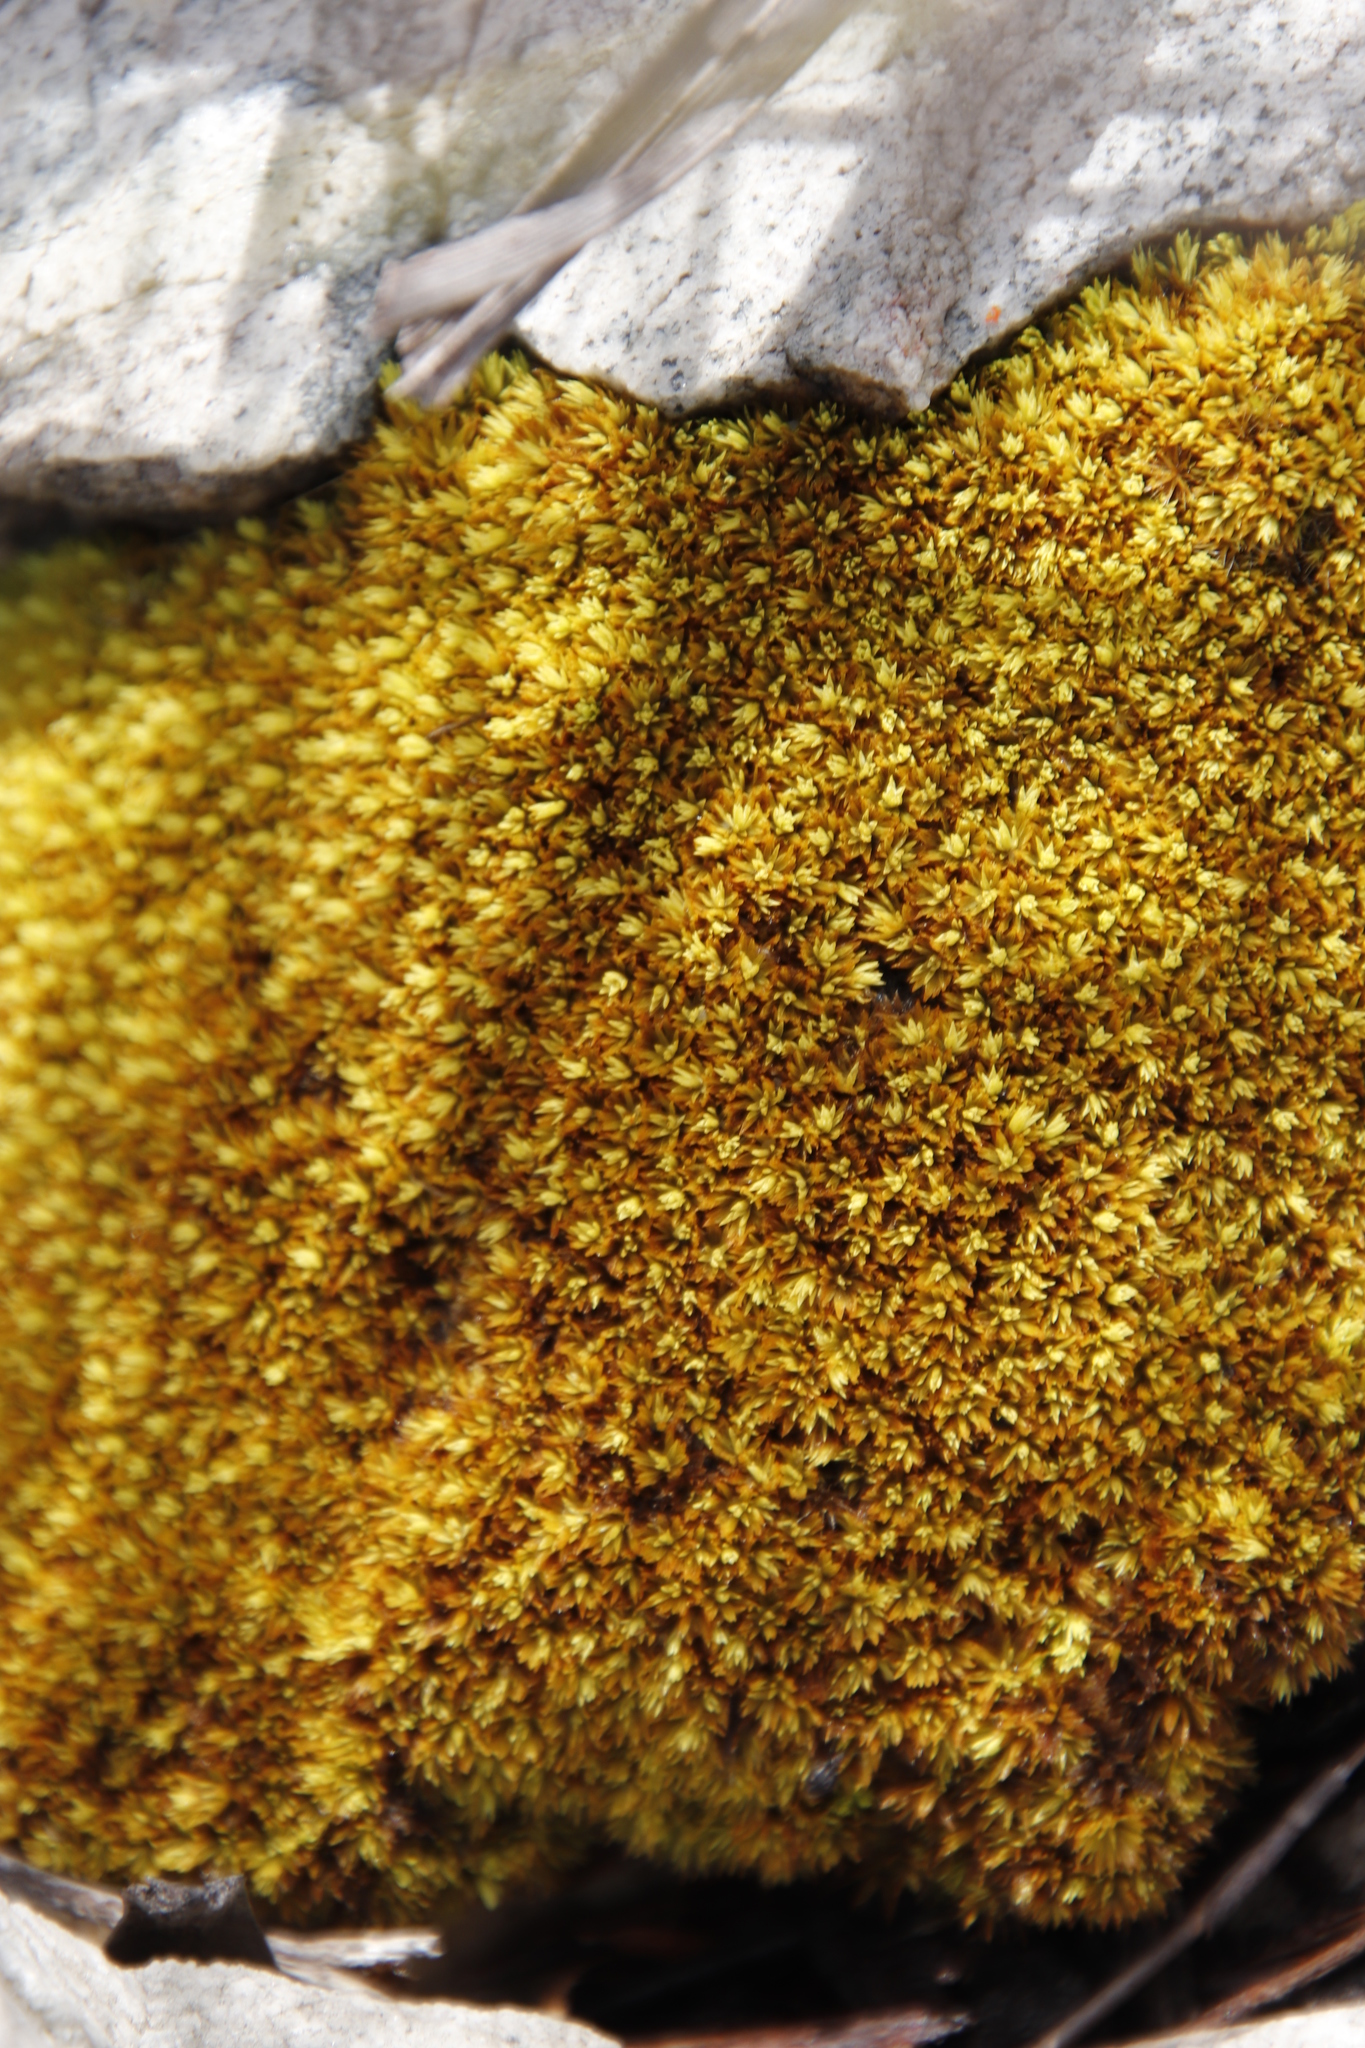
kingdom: Plantae
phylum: Bryophyta
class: Bryopsida
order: Dicranales
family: Hypodontiaceae
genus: Hypodontium
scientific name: Hypodontium pomiforme
